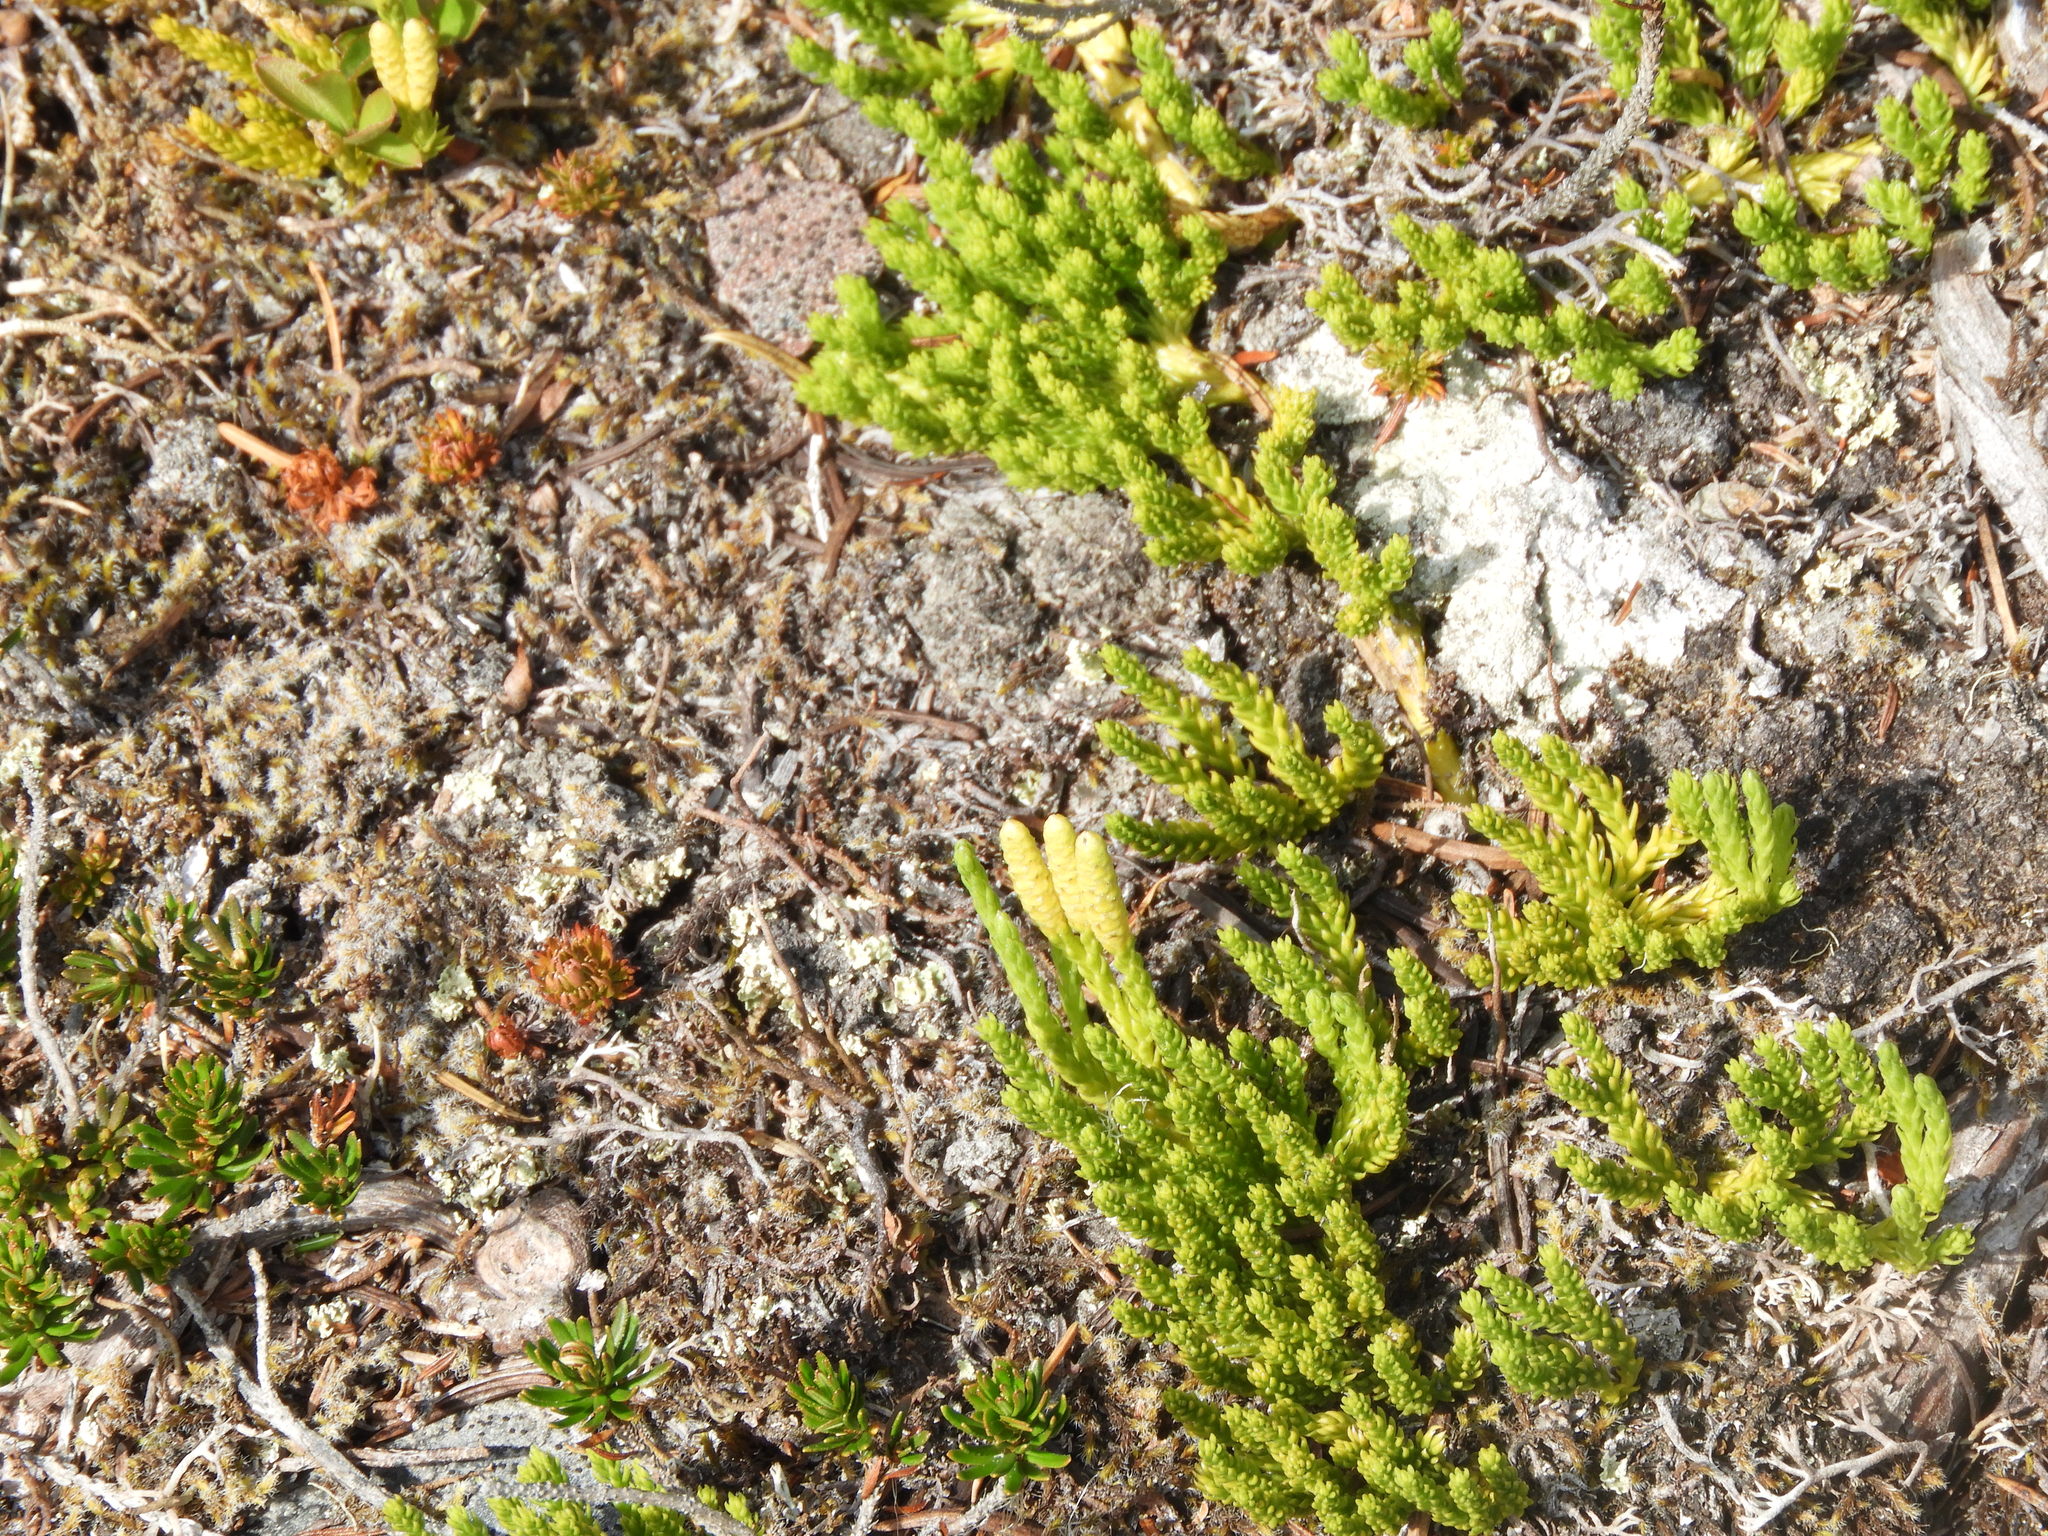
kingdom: Plantae
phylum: Tracheophyta
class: Lycopodiopsida
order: Lycopodiales
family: Lycopodiaceae
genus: Diphasiastrum
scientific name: Diphasiastrum sitchense
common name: Alaska clubmoss
